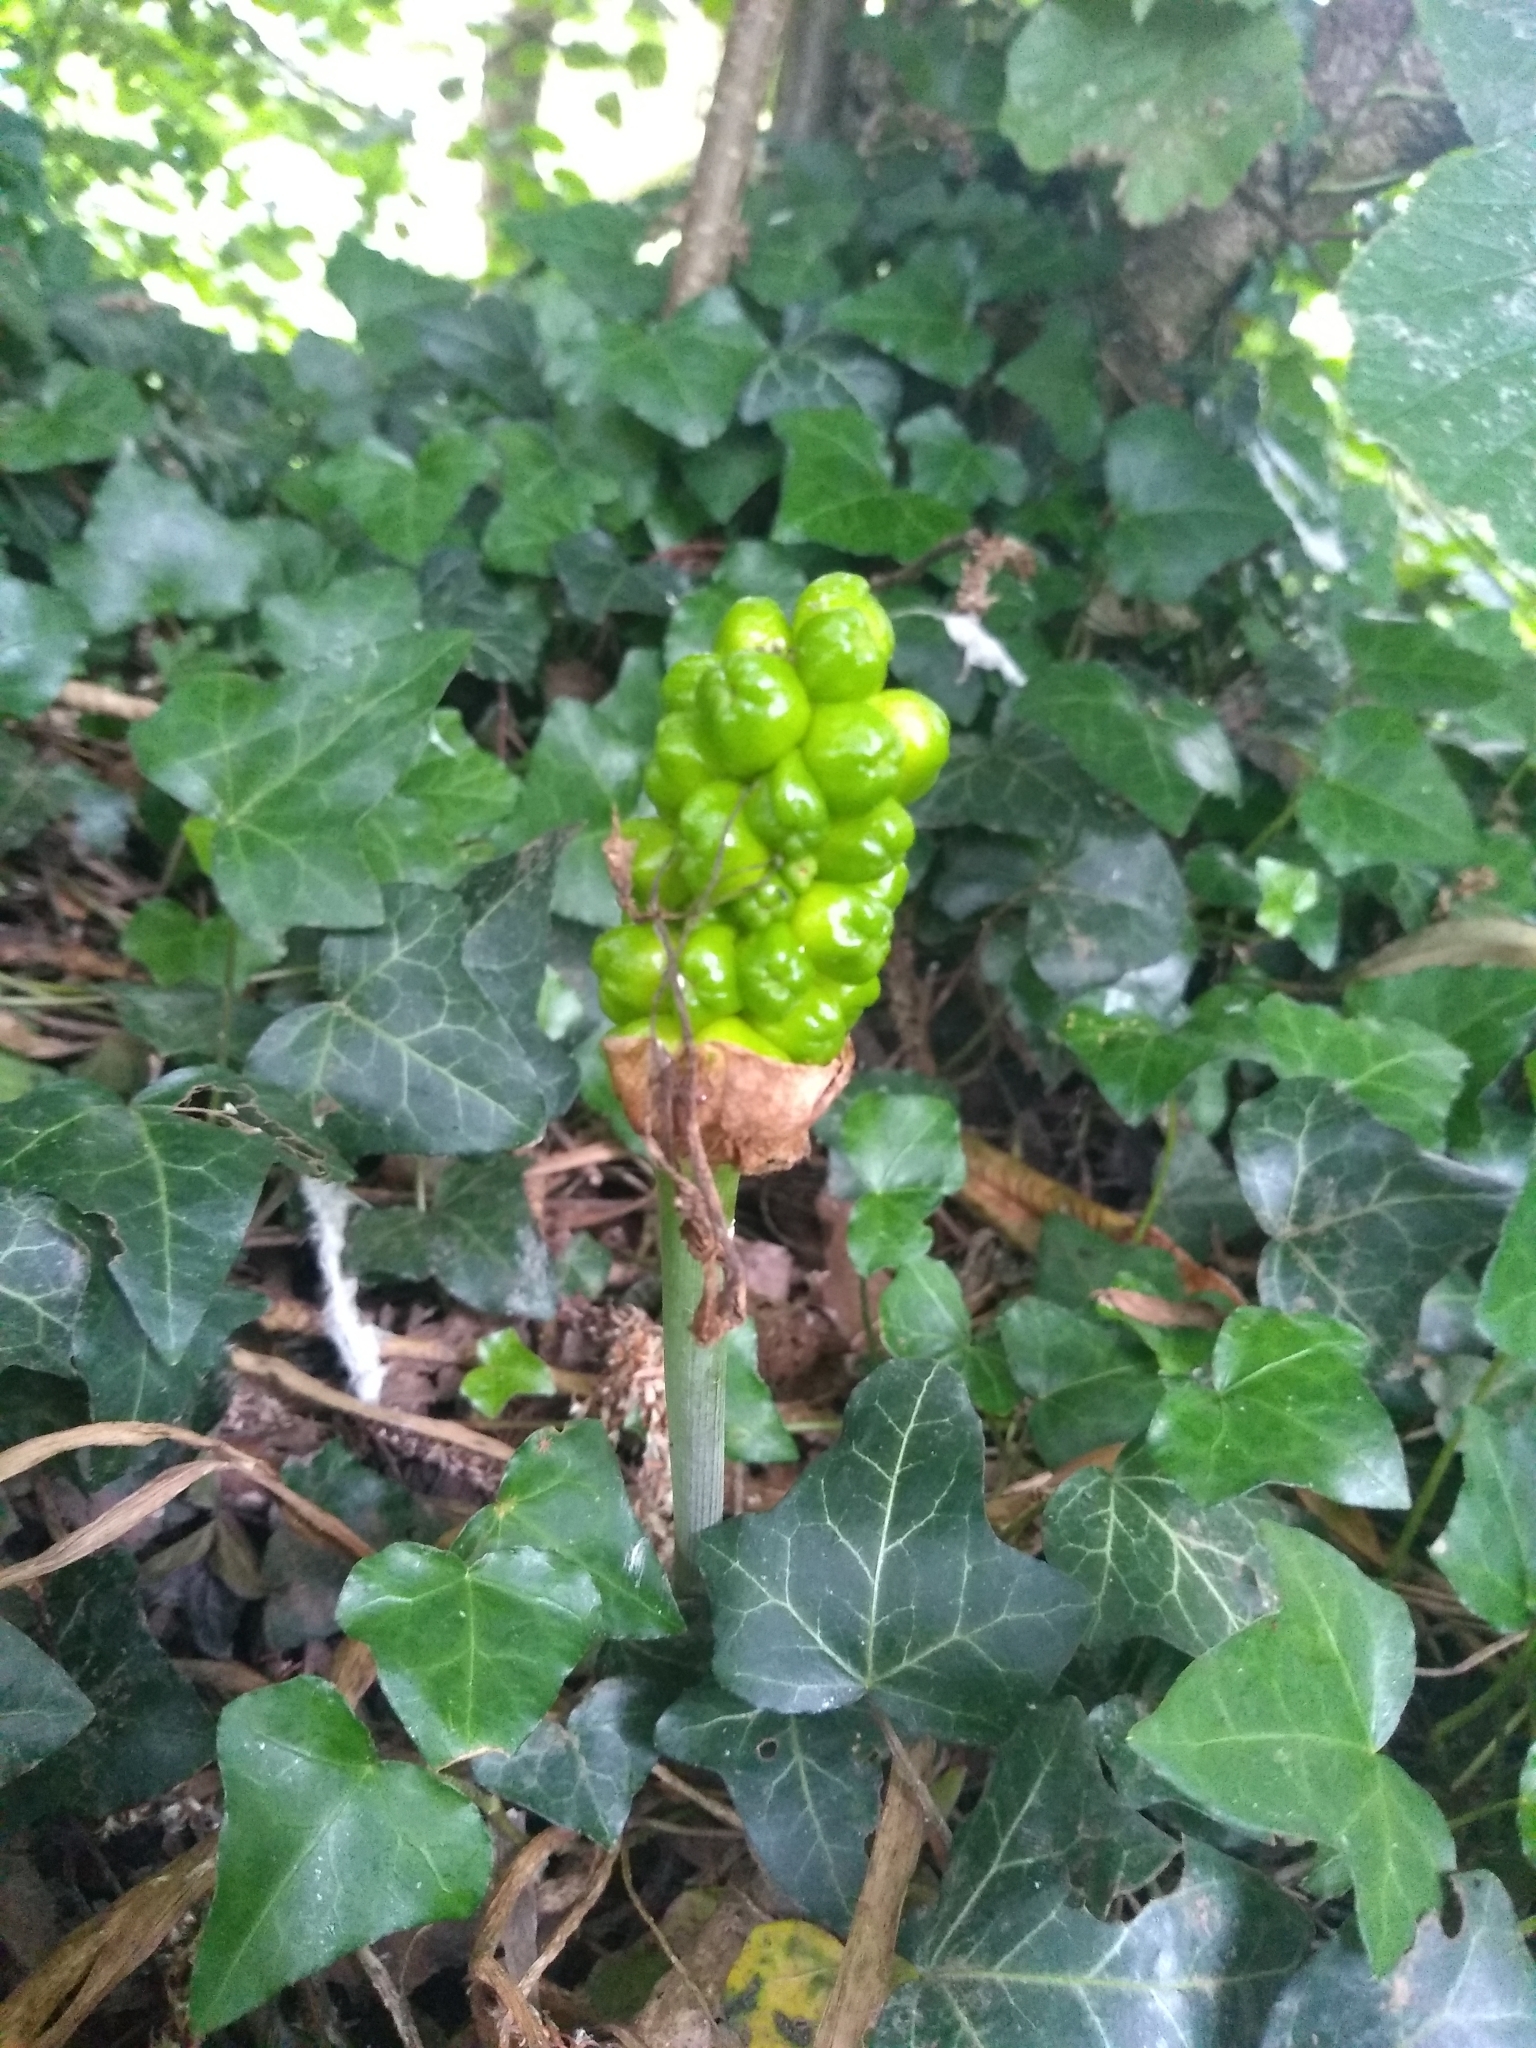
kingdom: Plantae
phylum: Tracheophyta
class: Liliopsida
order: Alismatales
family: Araceae
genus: Arum
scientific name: Arum maculatum
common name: Lords-and-ladies
